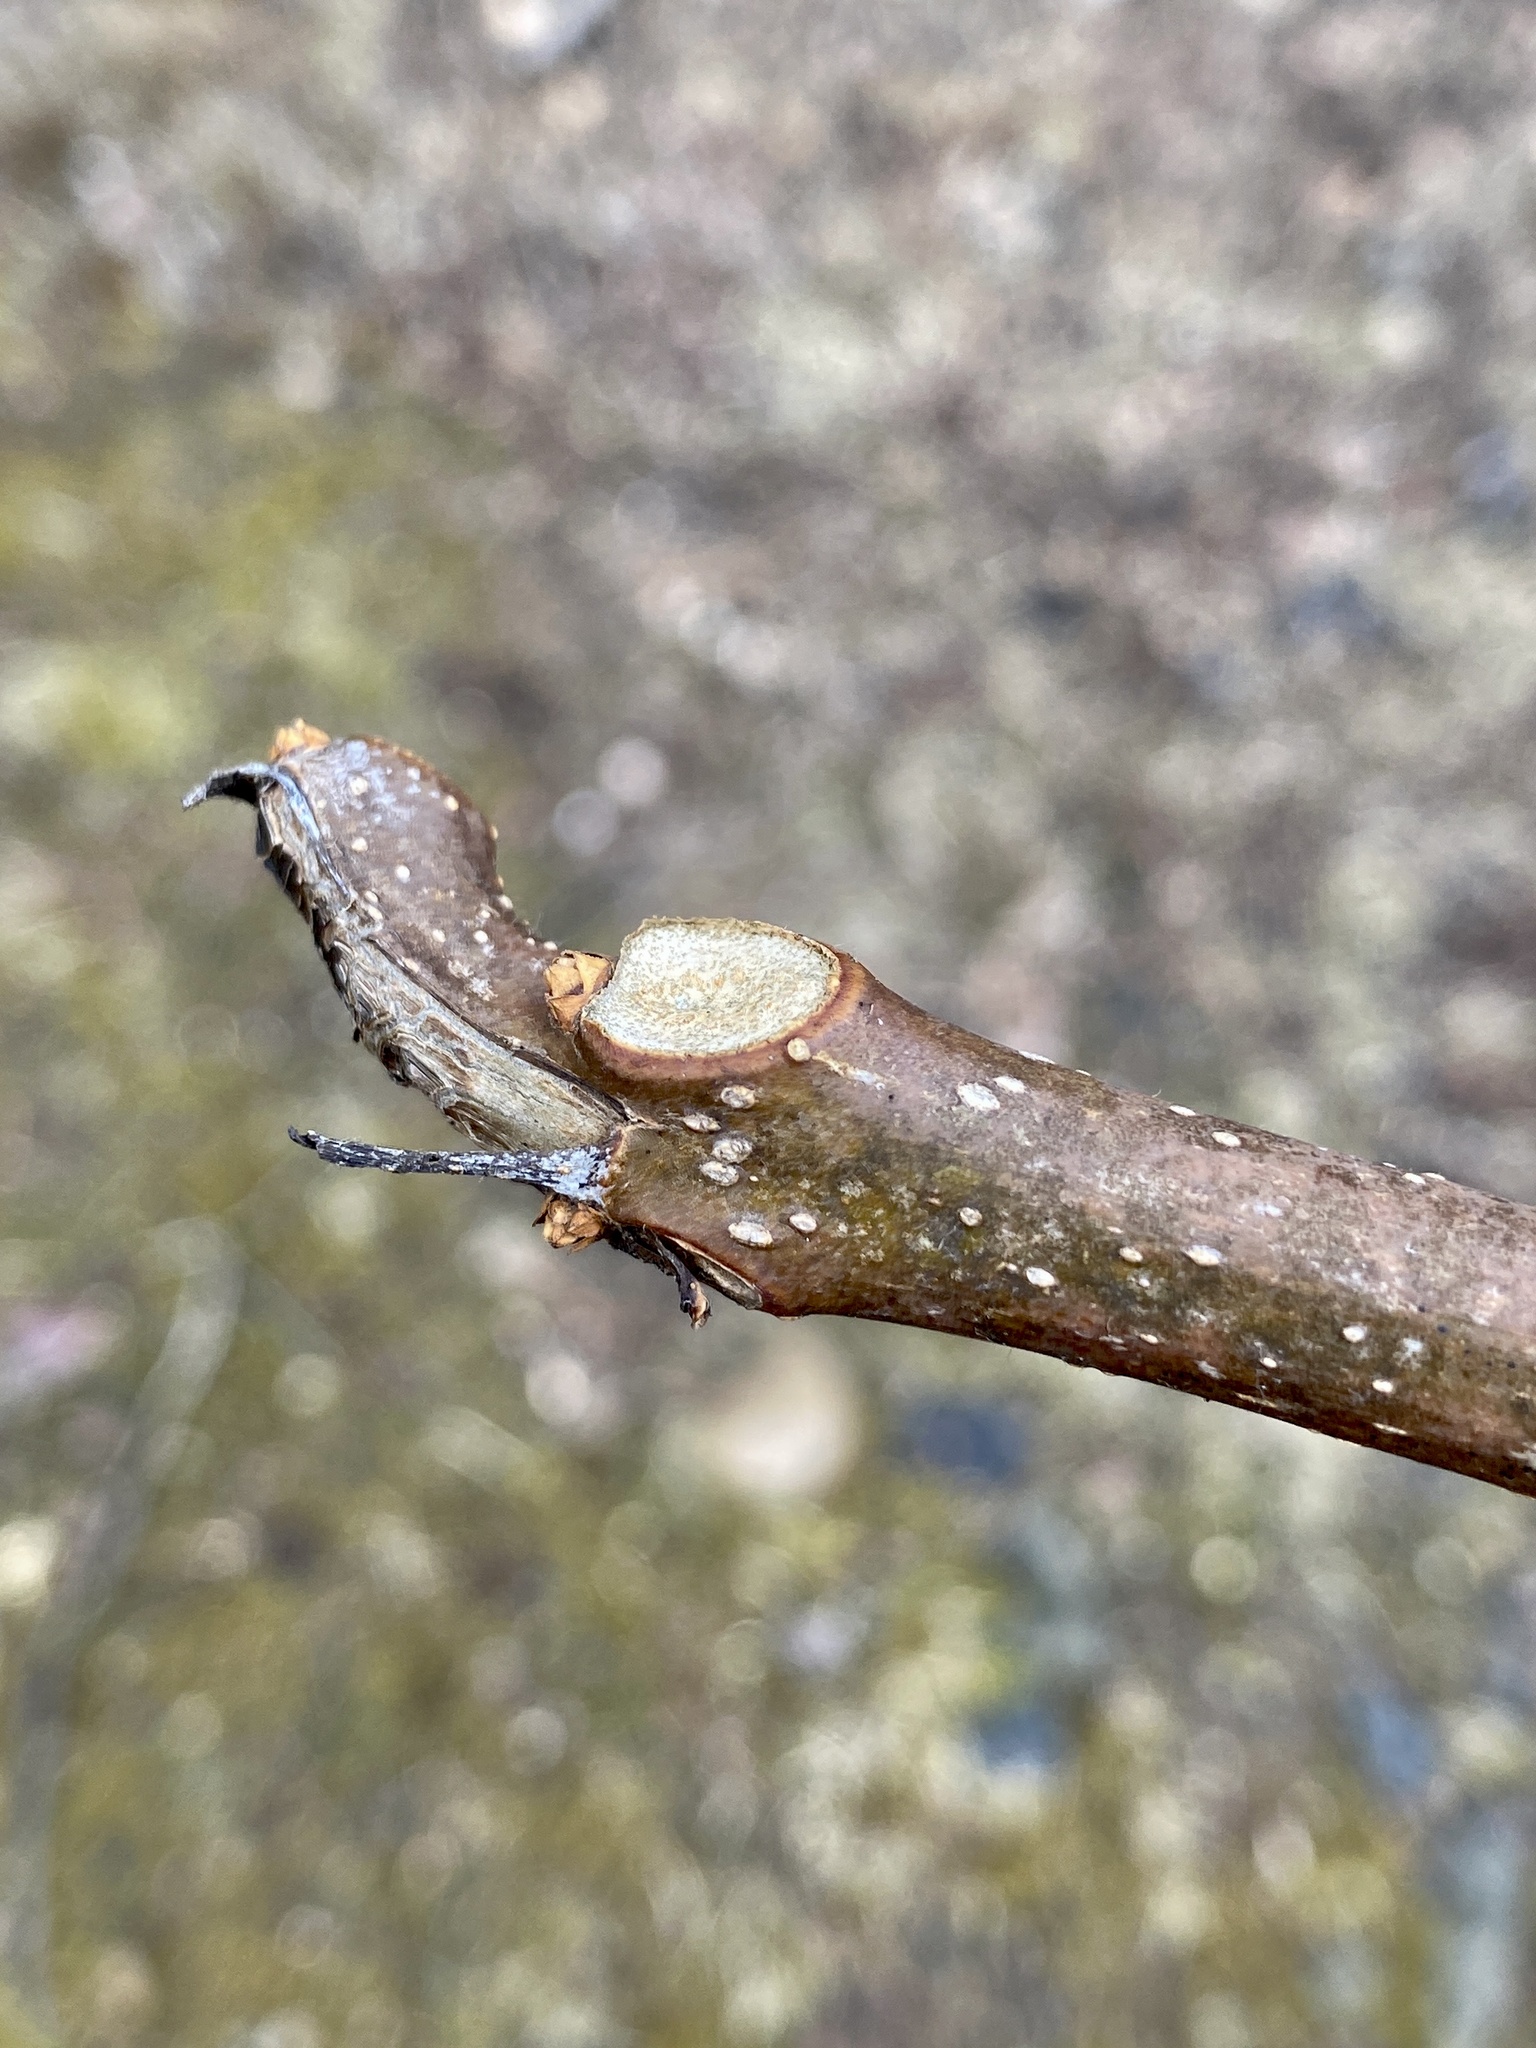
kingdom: Plantae
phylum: Tracheophyta
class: Magnoliopsida
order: Lamiales
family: Bignoniaceae
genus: Catalpa
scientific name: Catalpa
